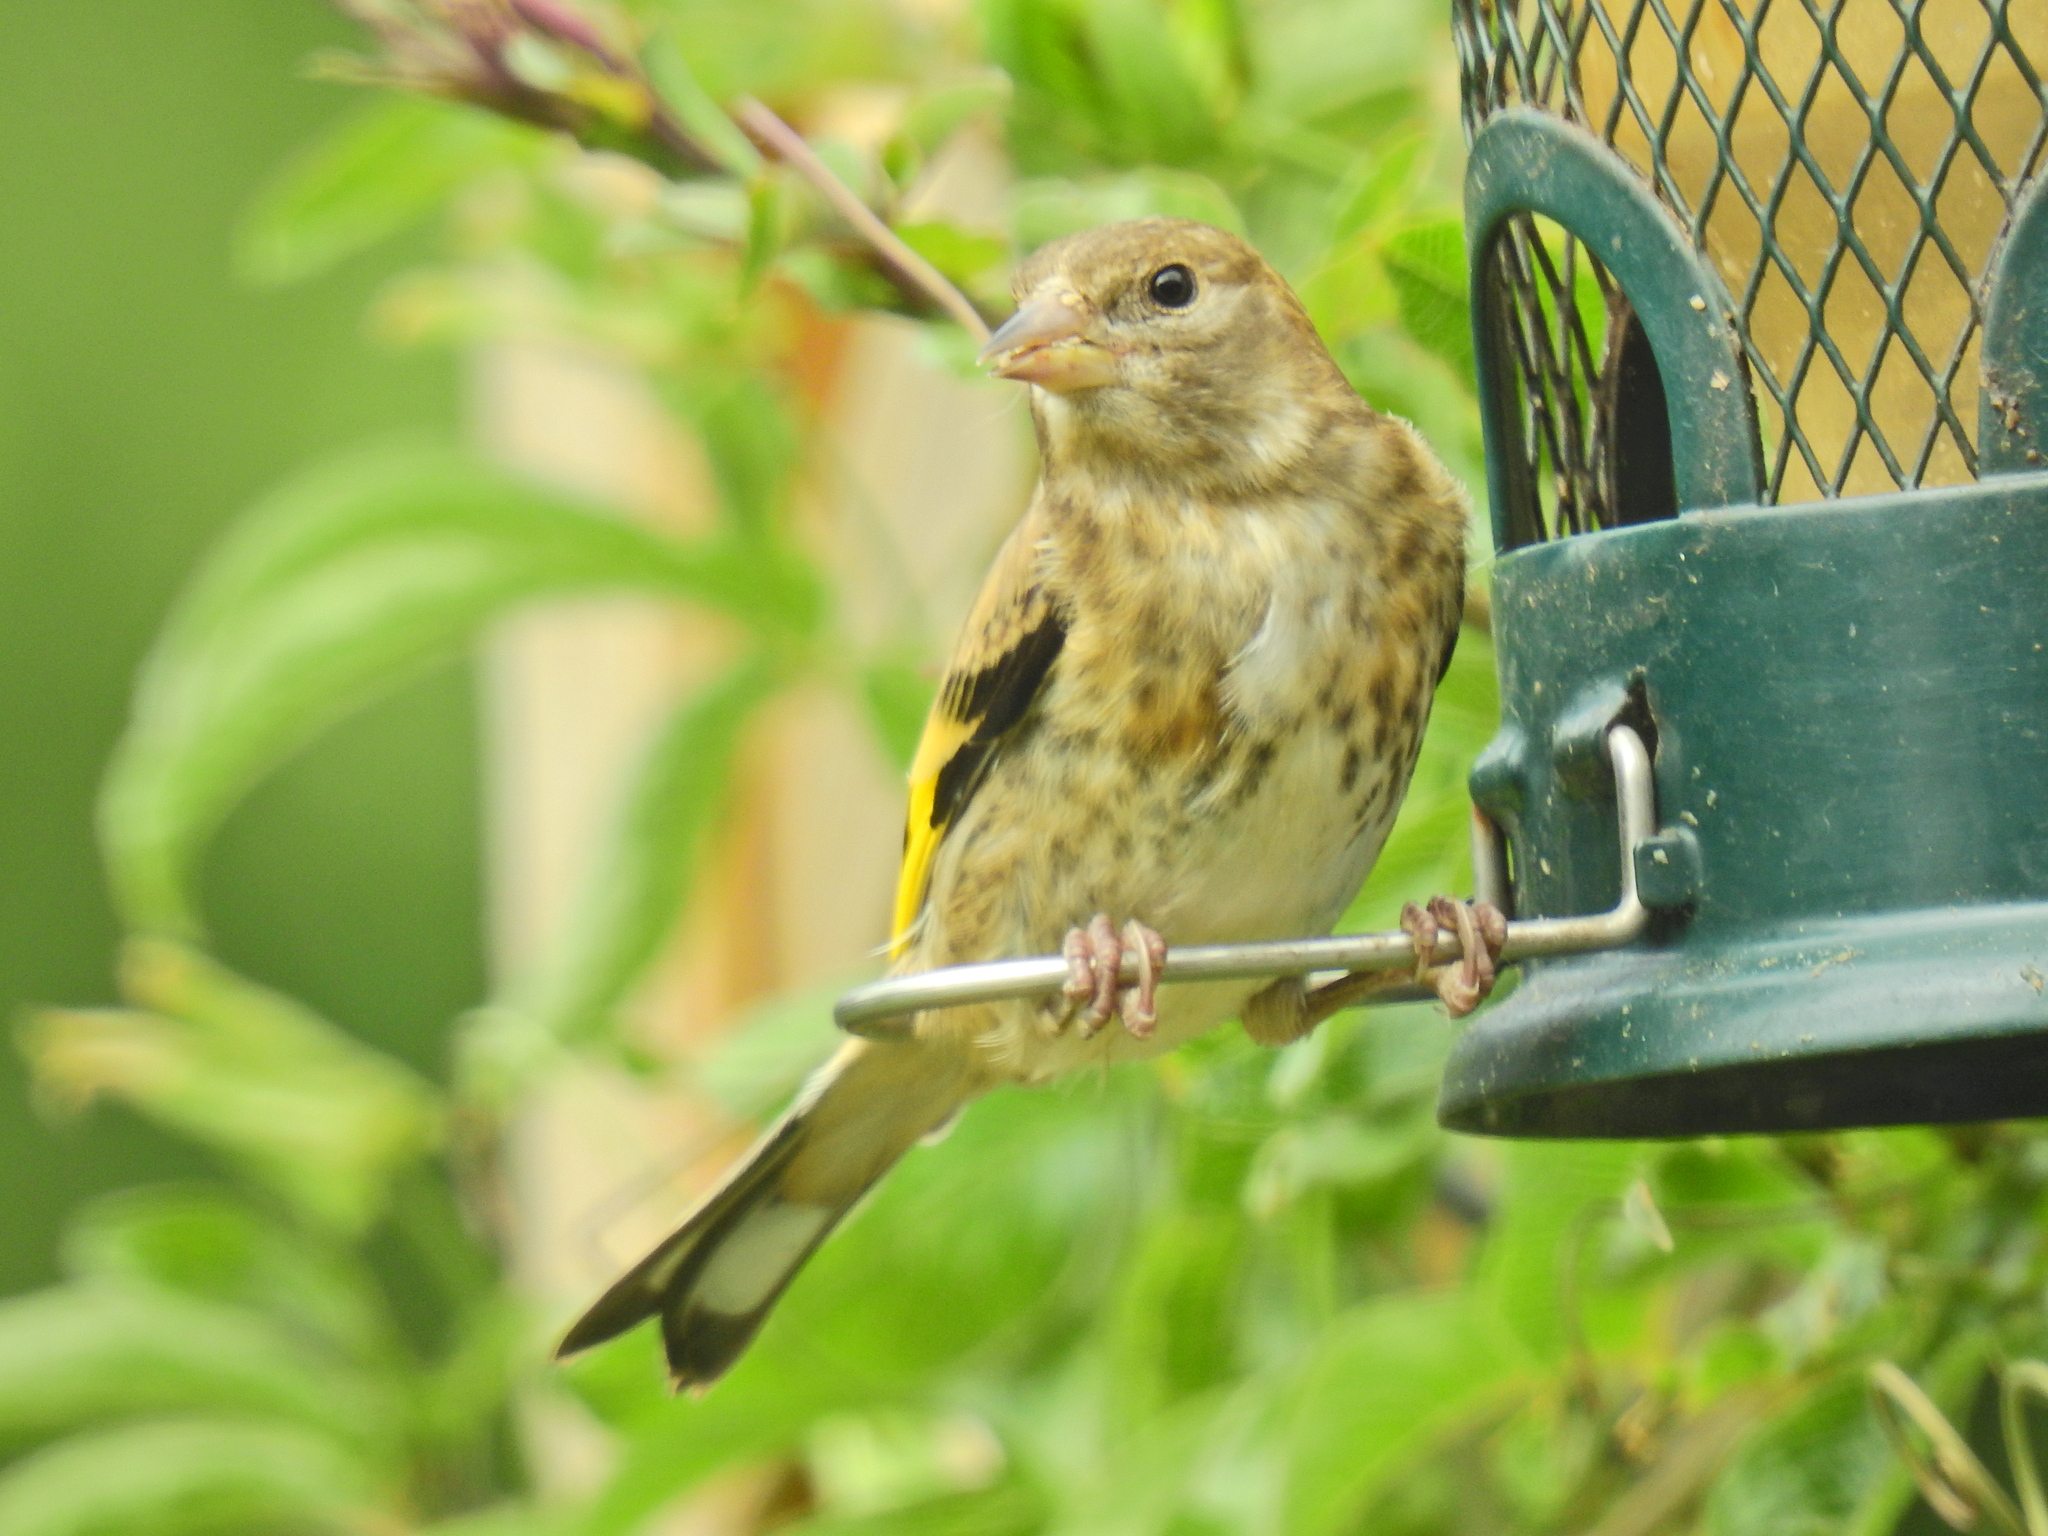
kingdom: Animalia
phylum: Chordata
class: Aves
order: Passeriformes
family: Fringillidae
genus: Carduelis
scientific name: Carduelis carduelis
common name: European goldfinch
